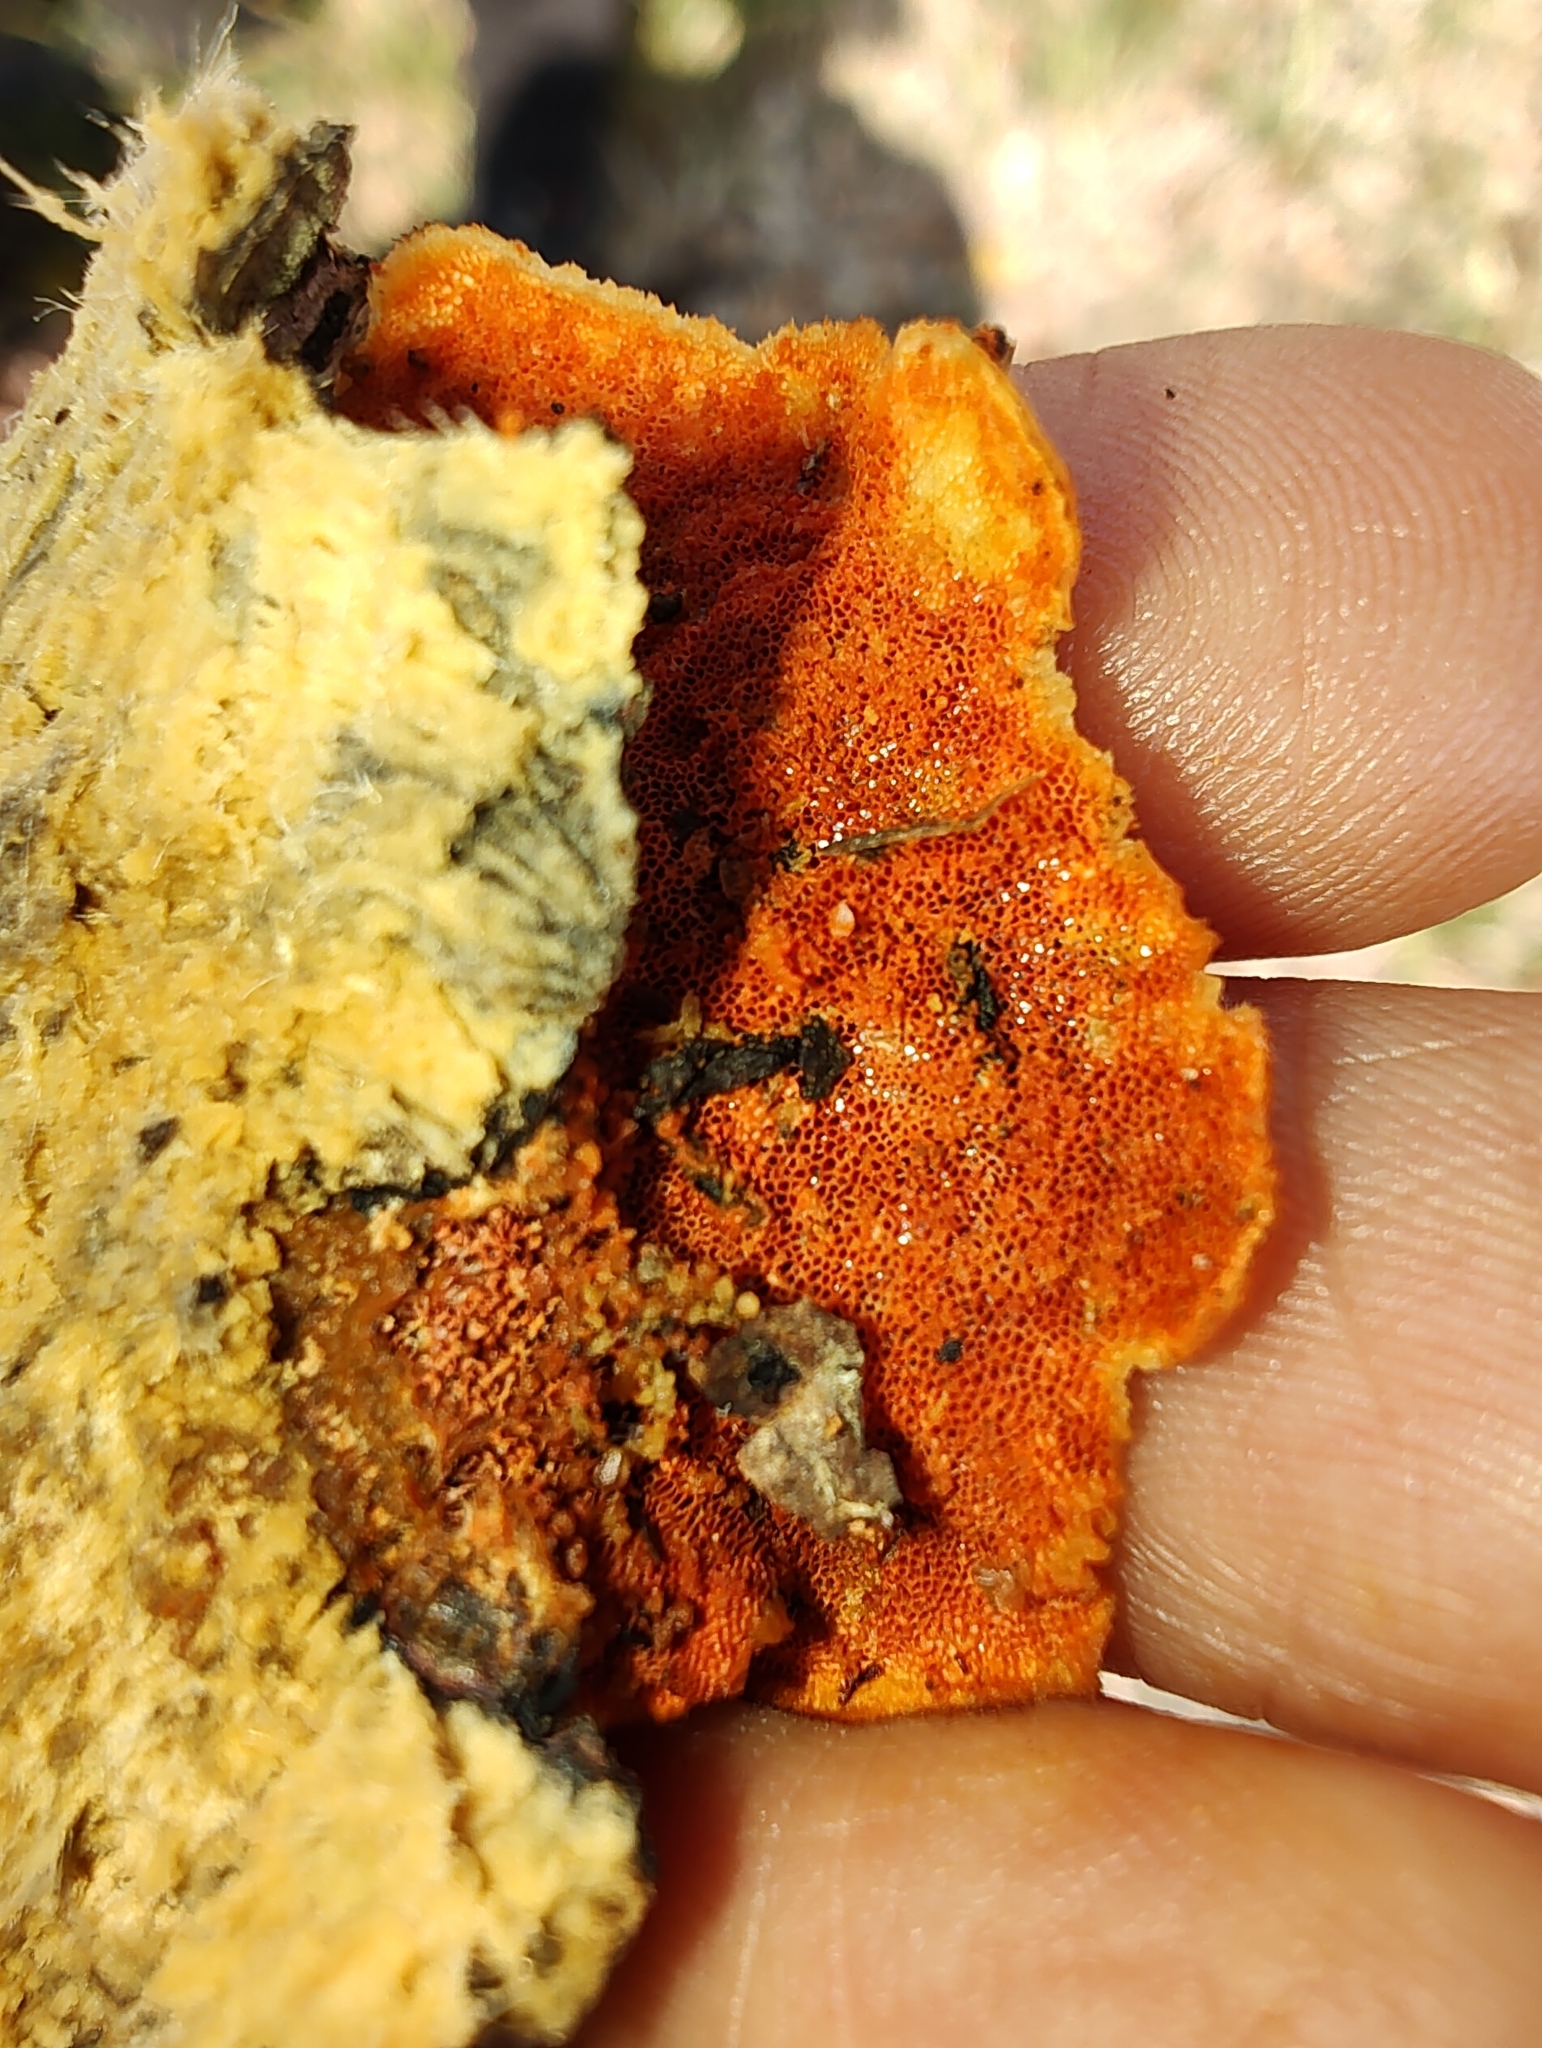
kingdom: Fungi
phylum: Basidiomycota
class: Agaricomycetes
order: Polyporales
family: Polyporaceae
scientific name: Polyporaceae
